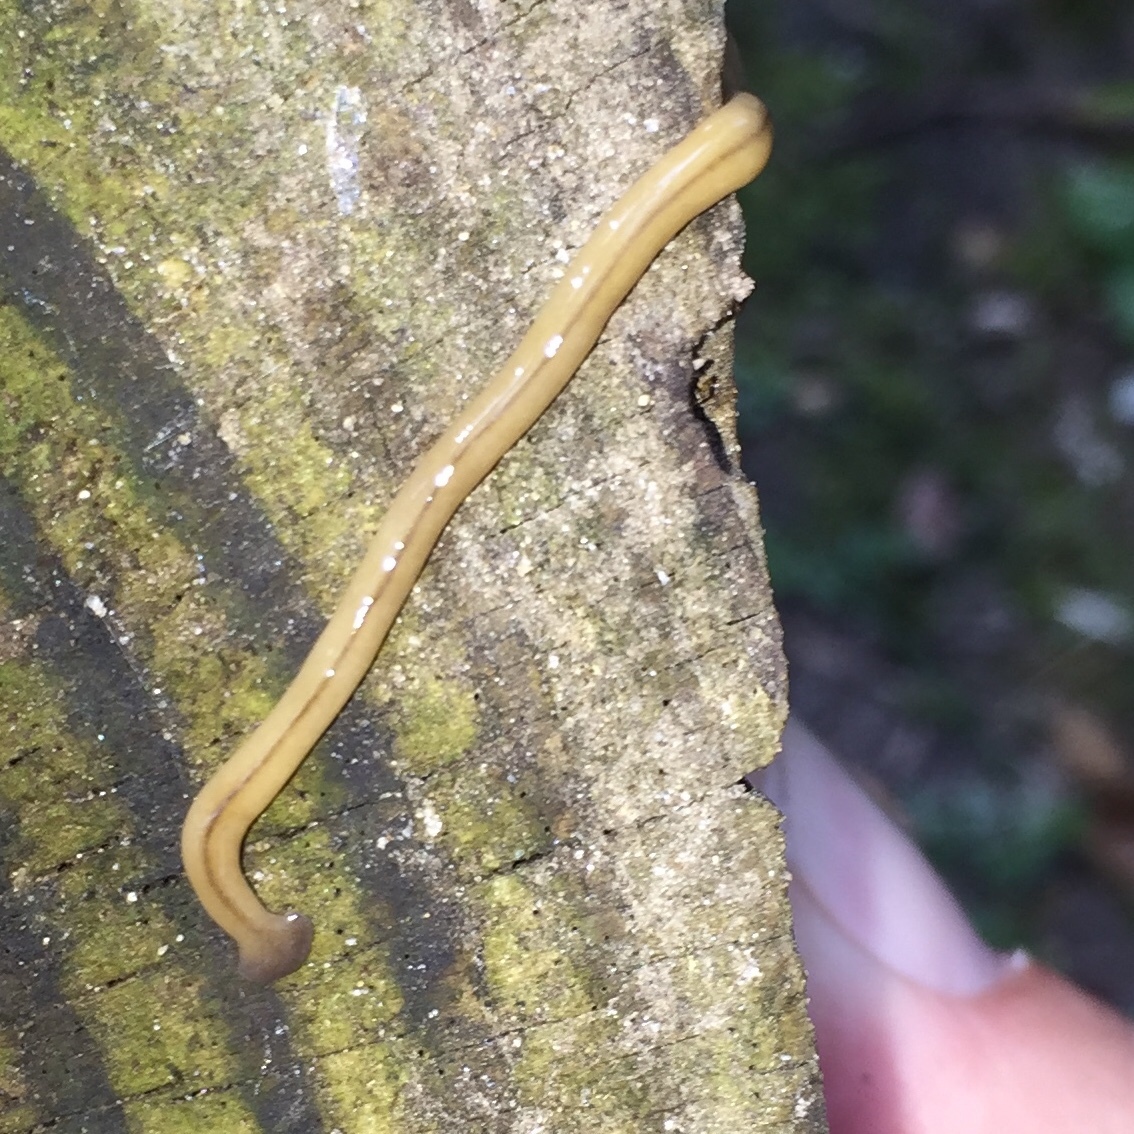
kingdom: Animalia
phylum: Platyhelminthes
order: Tricladida
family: Geoplanidae
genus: Bipalium
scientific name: Bipalium adventitium
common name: Land planarian
